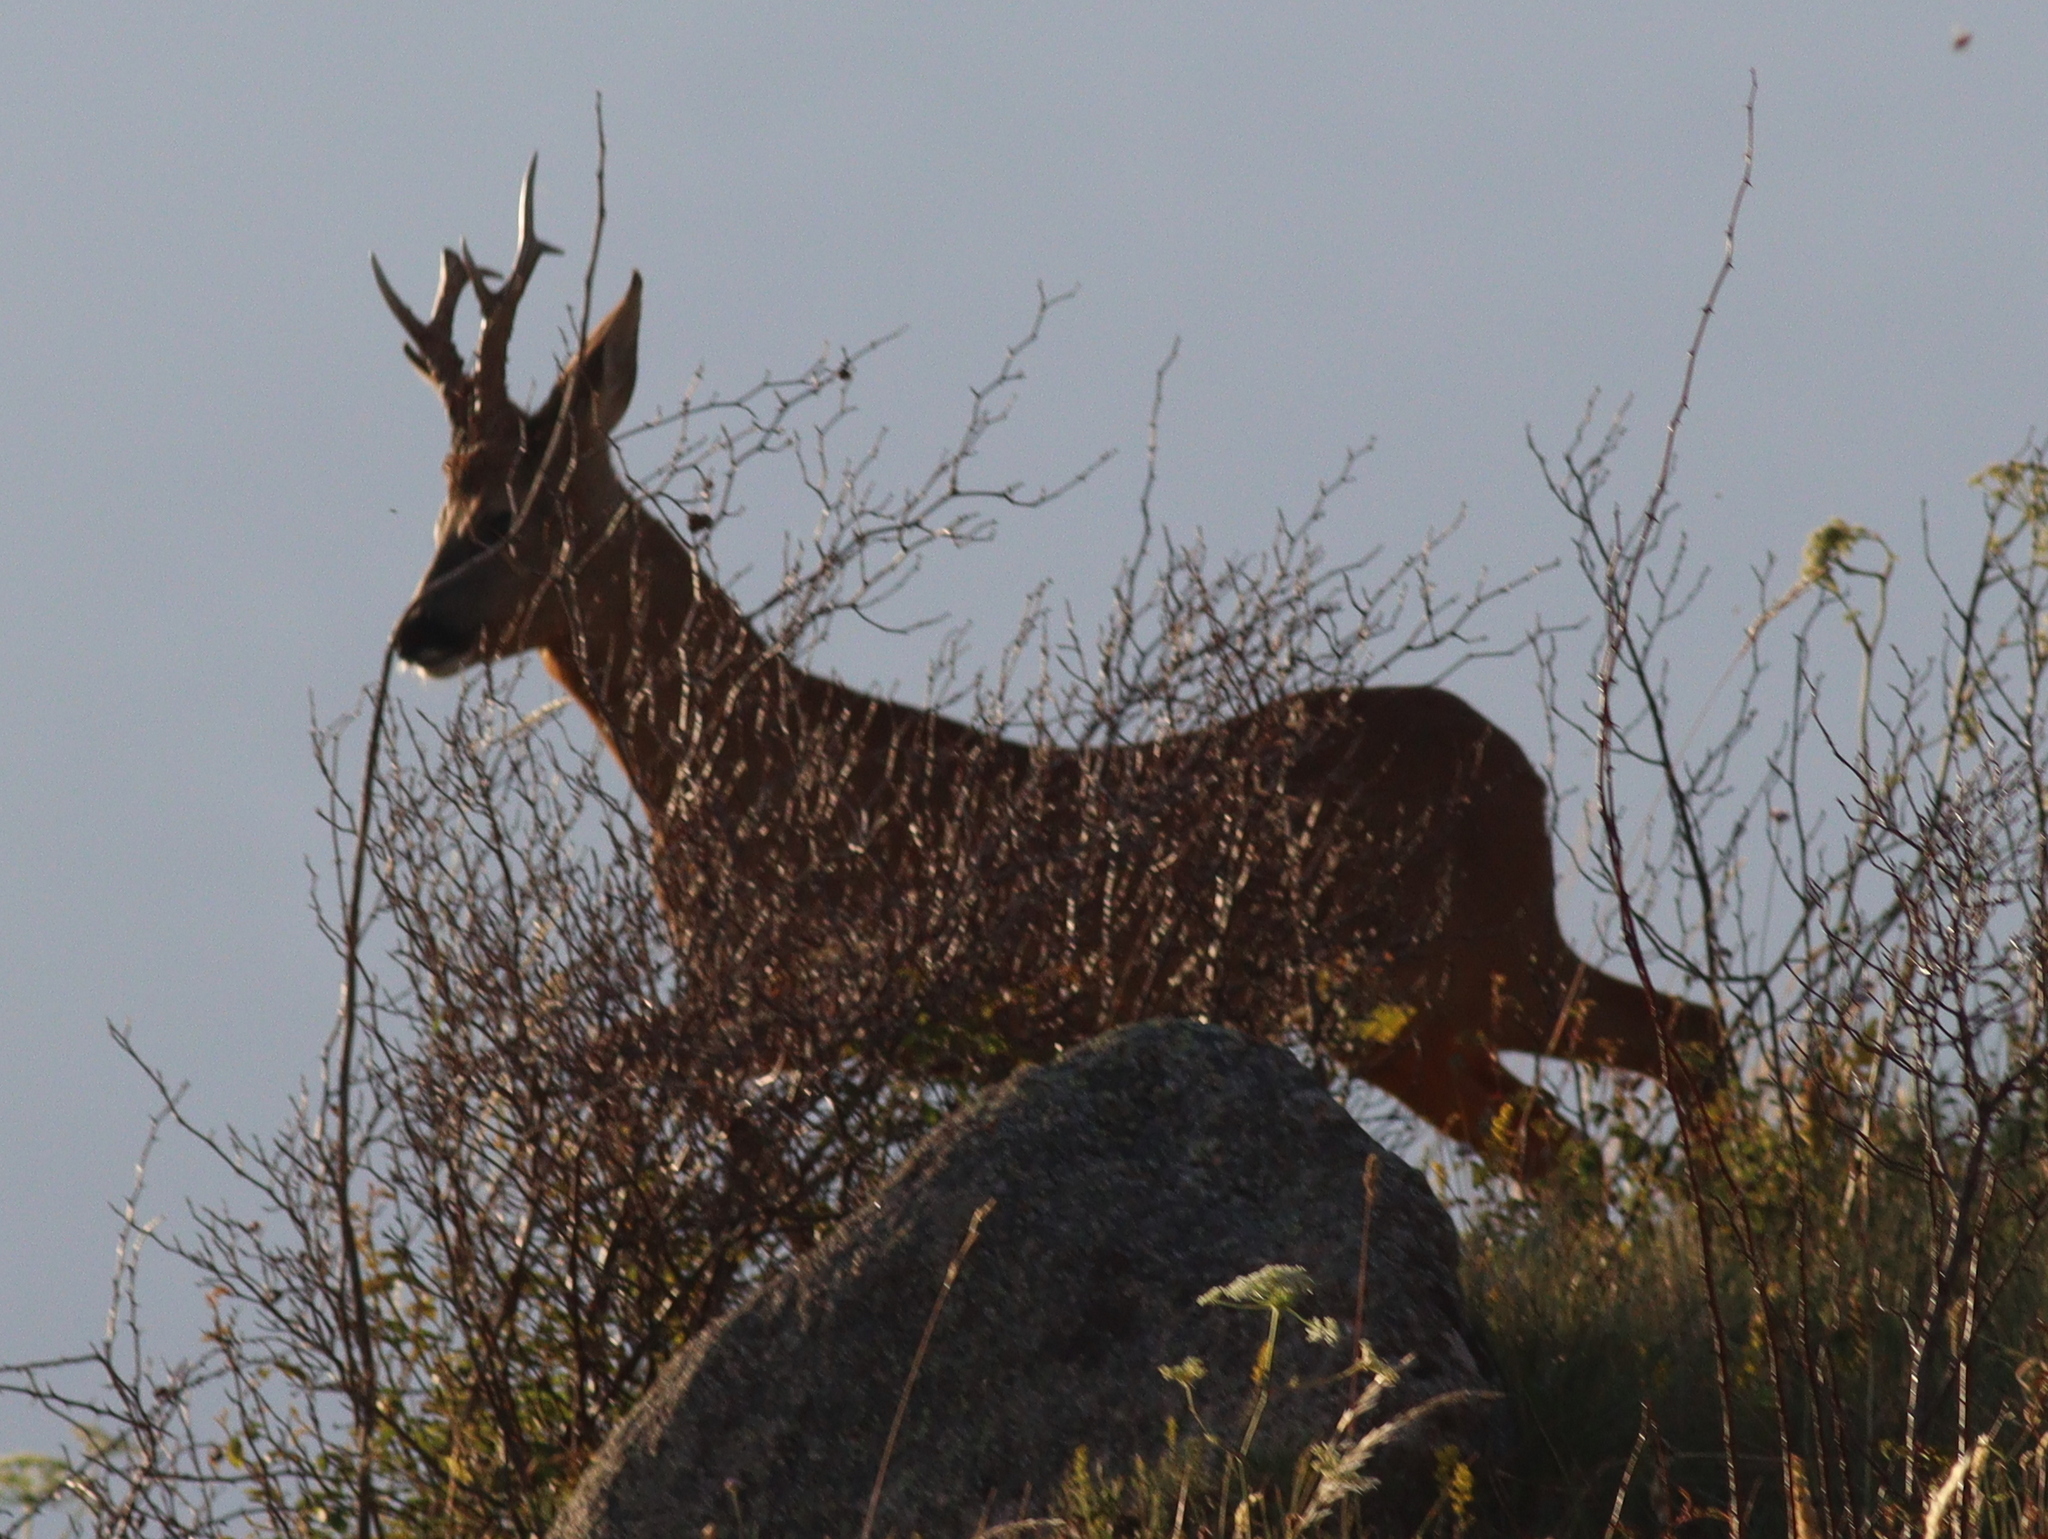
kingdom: Animalia
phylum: Chordata
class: Mammalia
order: Artiodactyla
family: Cervidae
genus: Capreolus
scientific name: Capreolus capreolus
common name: Western roe deer
